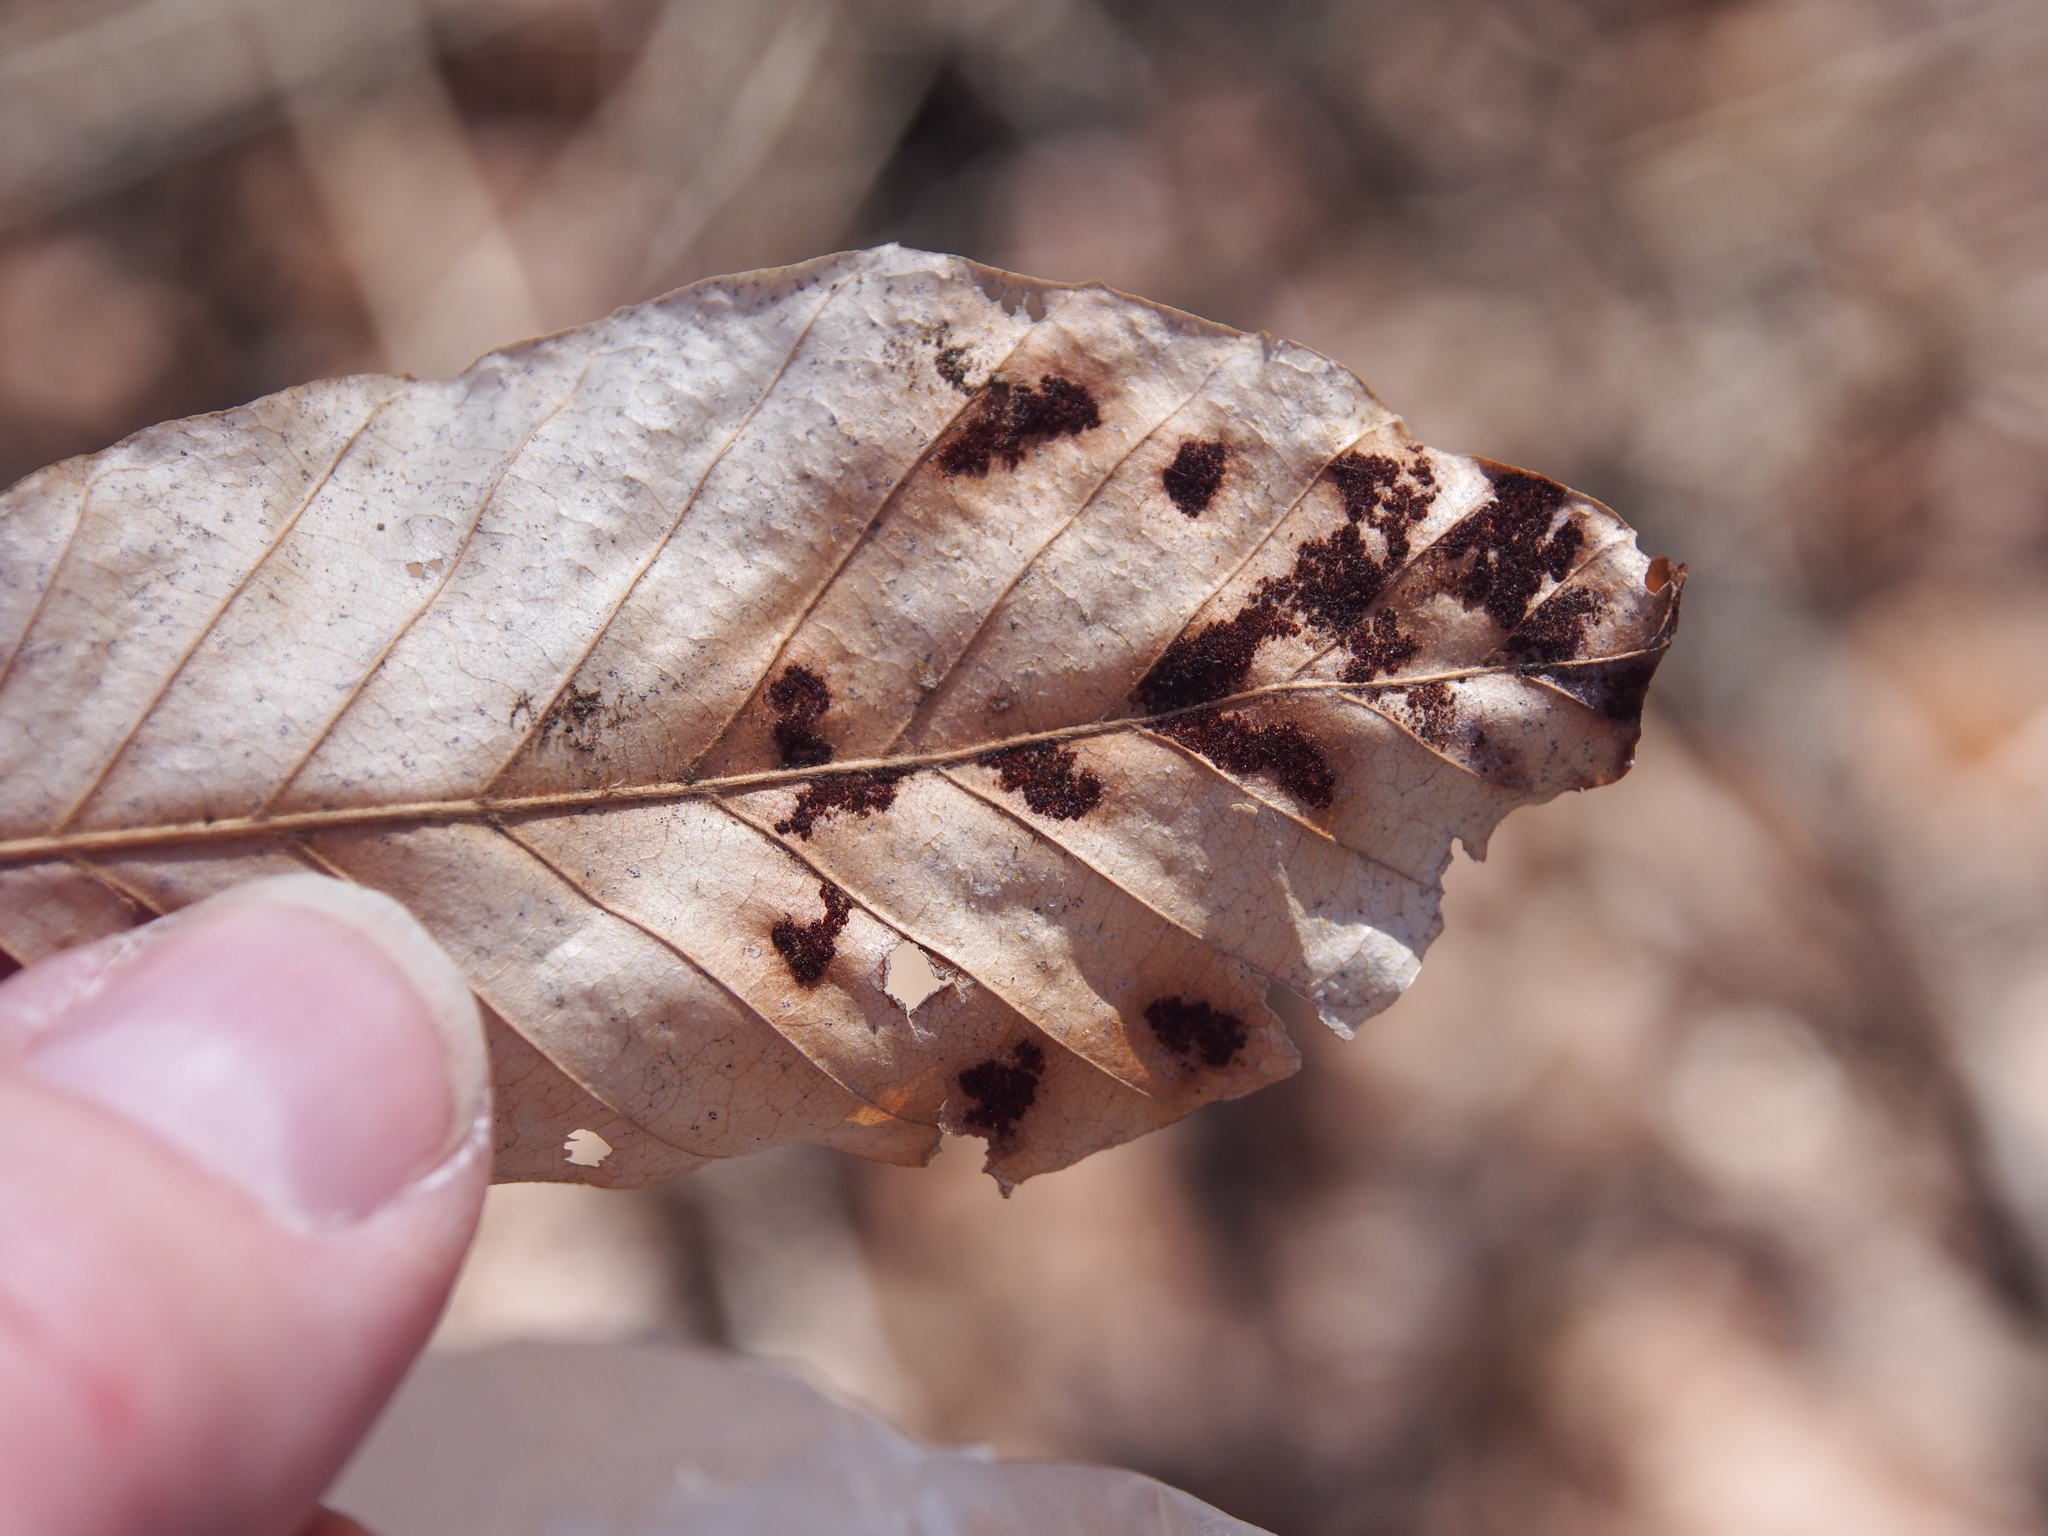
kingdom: Animalia
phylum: Arthropoda
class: Arachnida
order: Trombidiformes
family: Eriophyidae
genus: Acalitus
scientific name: Acalitus
